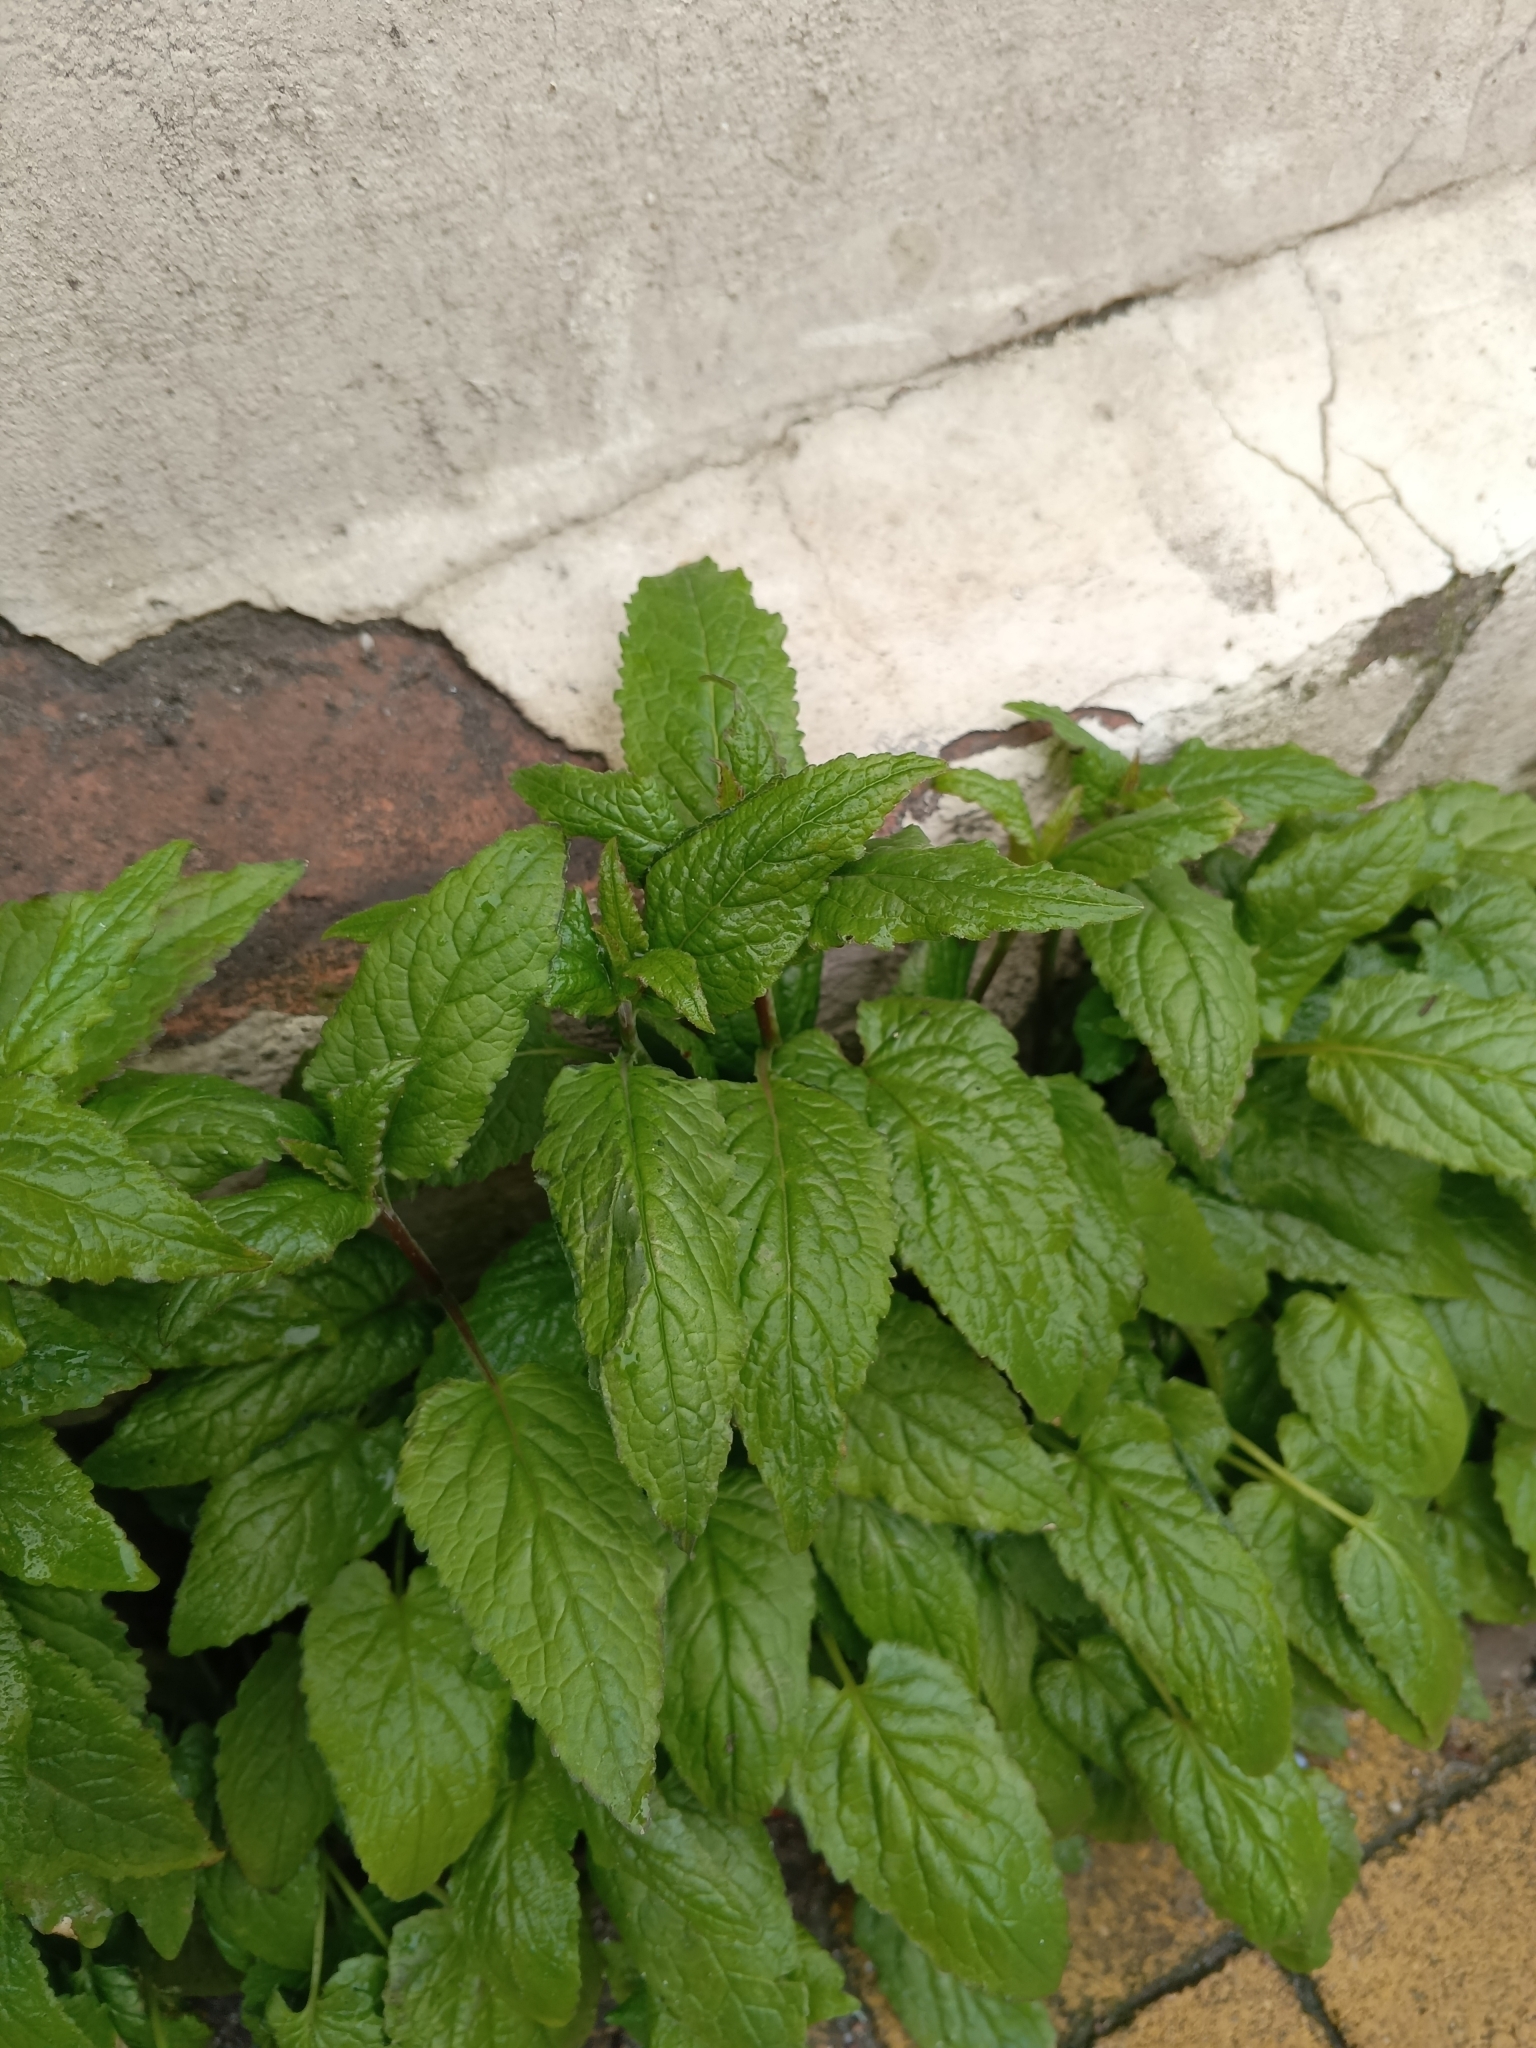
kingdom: Plantae
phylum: Tracheophyta
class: Magnoliopsida
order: Asterales
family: Campanulaceae
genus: Campanula
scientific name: Campanula rapunculoides
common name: Creeping bellflower
